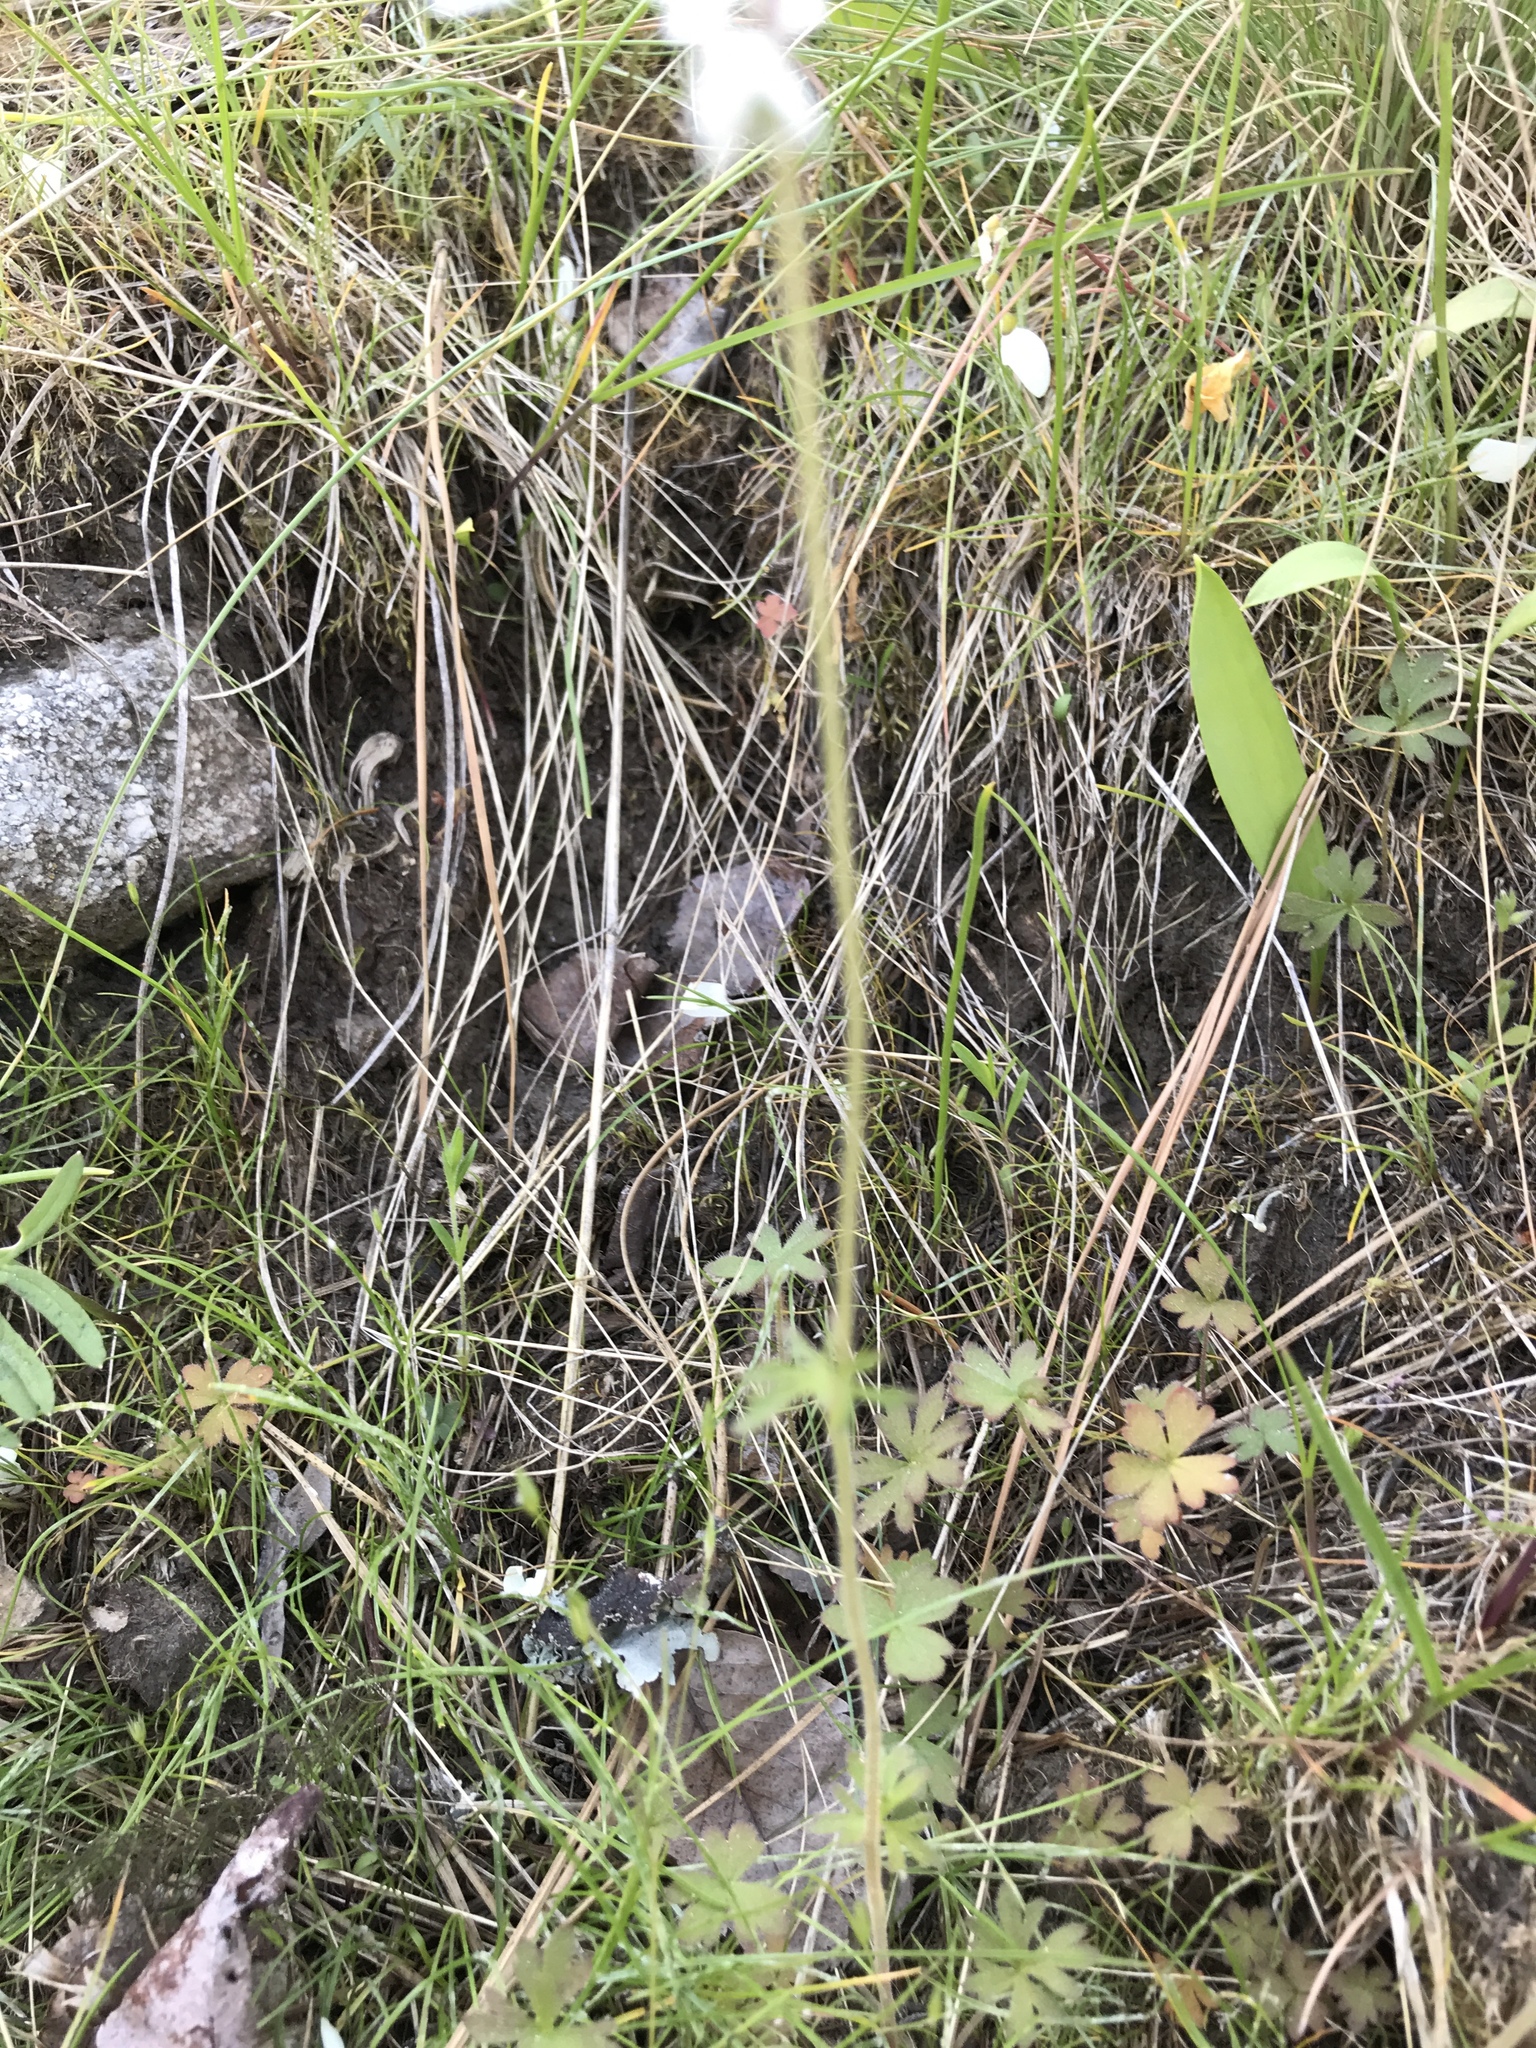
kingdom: Plantae
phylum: Tracheophyta
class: Magnoliopsida
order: Saxifragales
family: Saxifragaceae
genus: Lithophragma
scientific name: Lithophragma parviflorum
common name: Small-flowered fringe-cup
